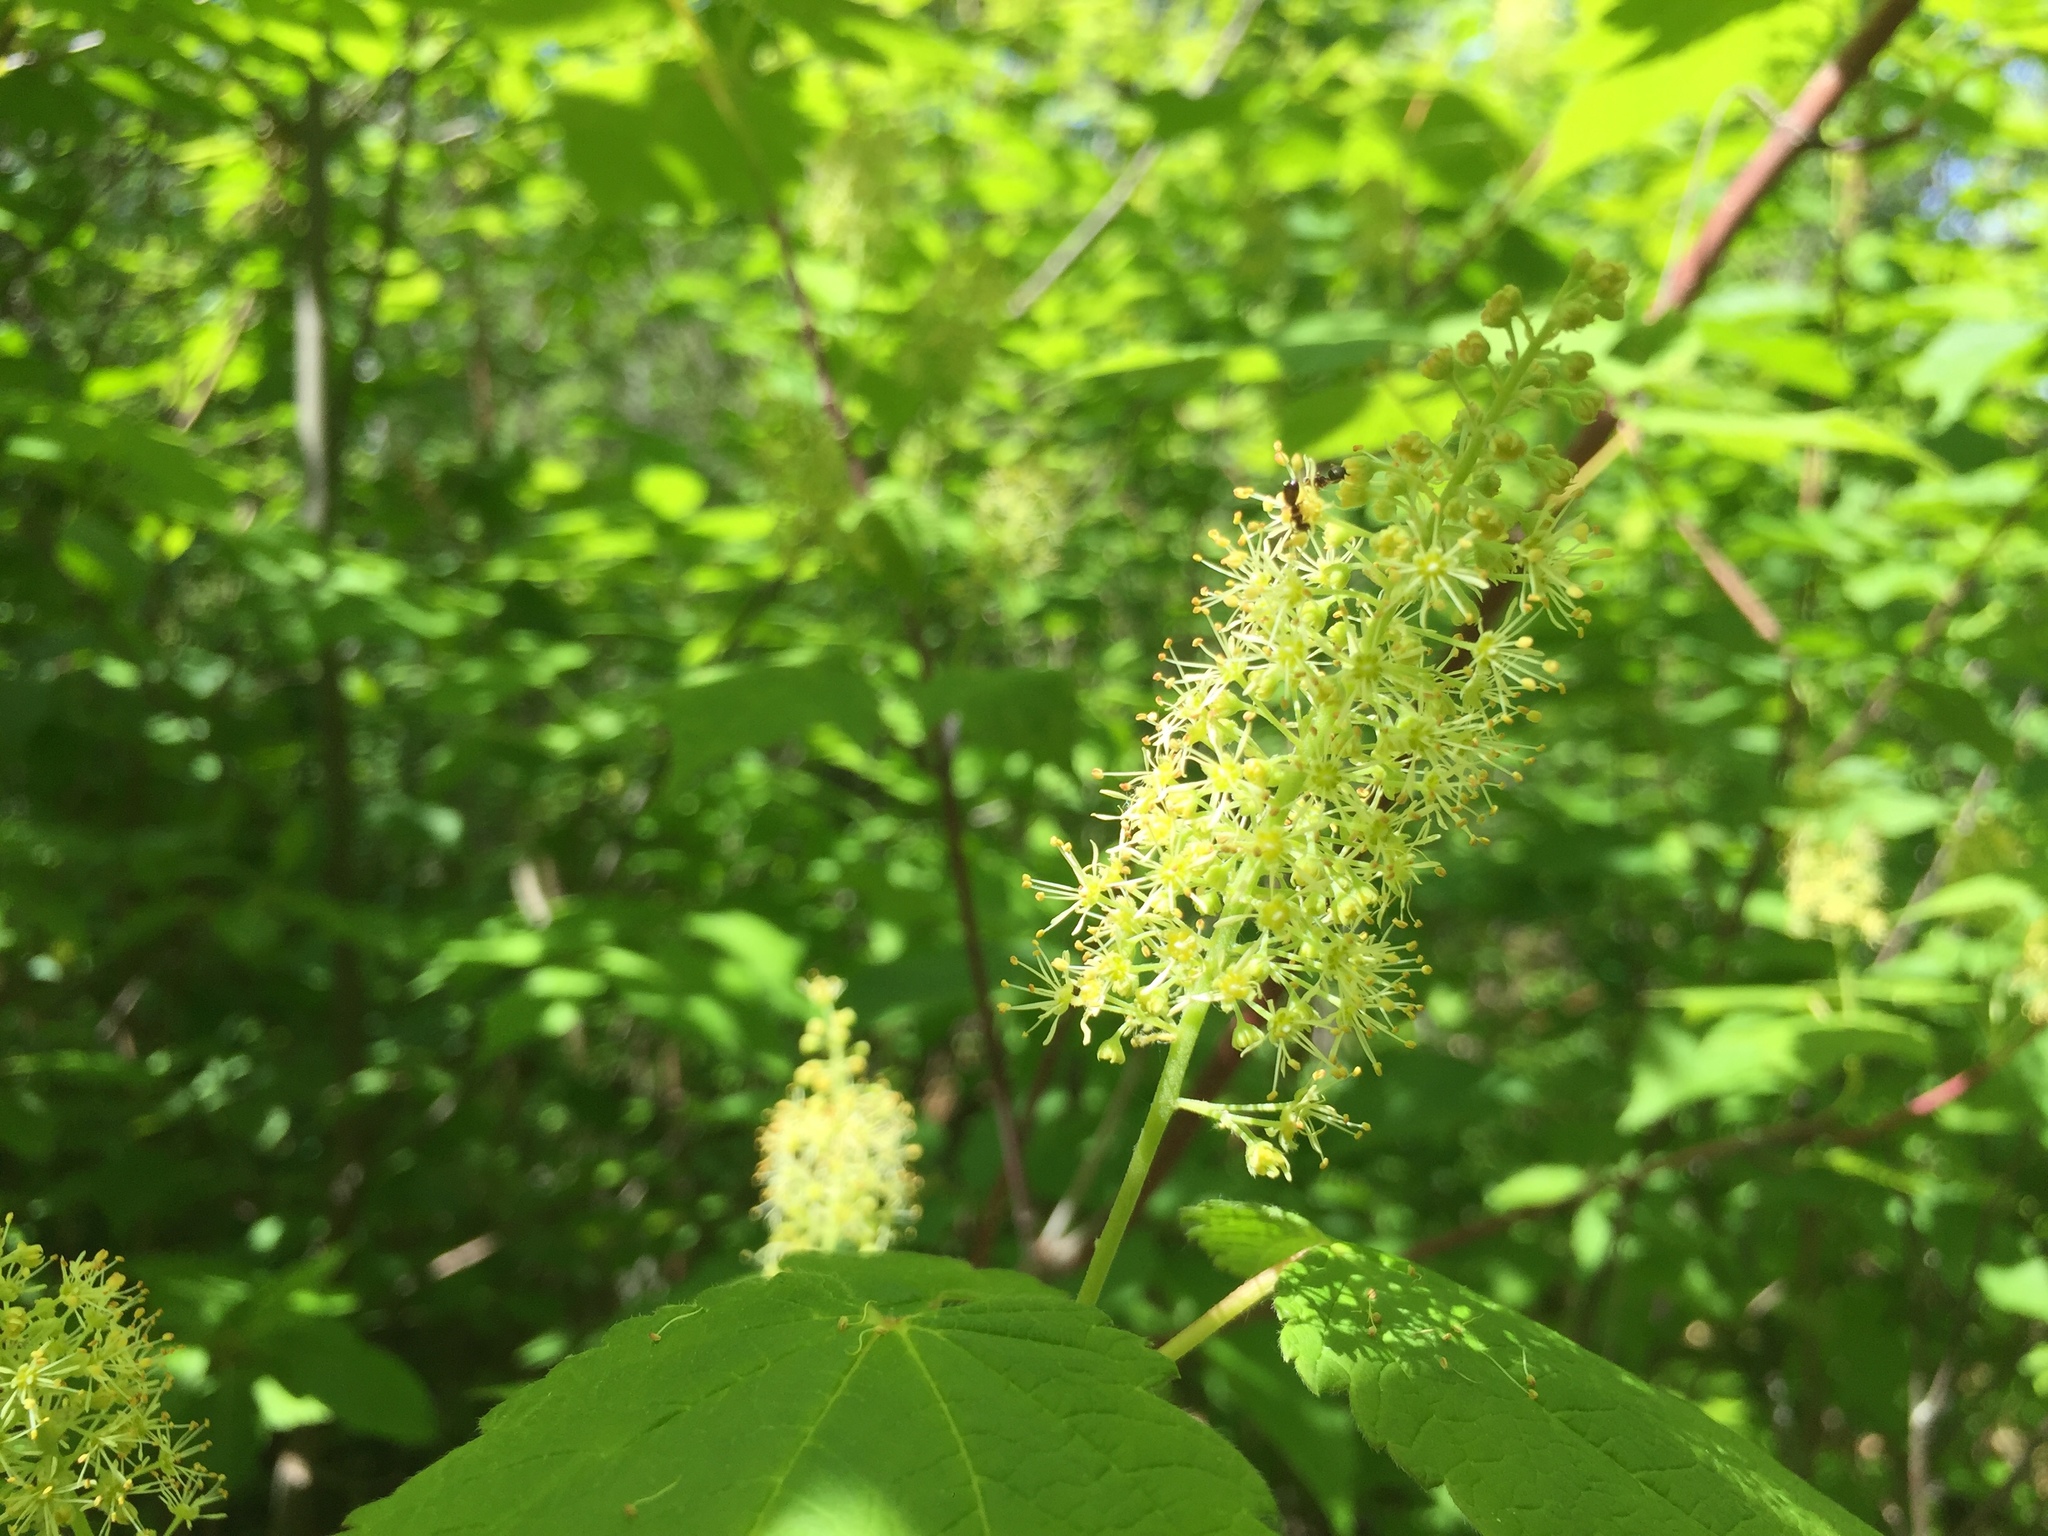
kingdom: Plantae
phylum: Tracheophyta
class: Magnoliopsida
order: Sapindales
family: Sapindaceae
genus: Acer
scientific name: Acer spicatum
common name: Mountain maple
